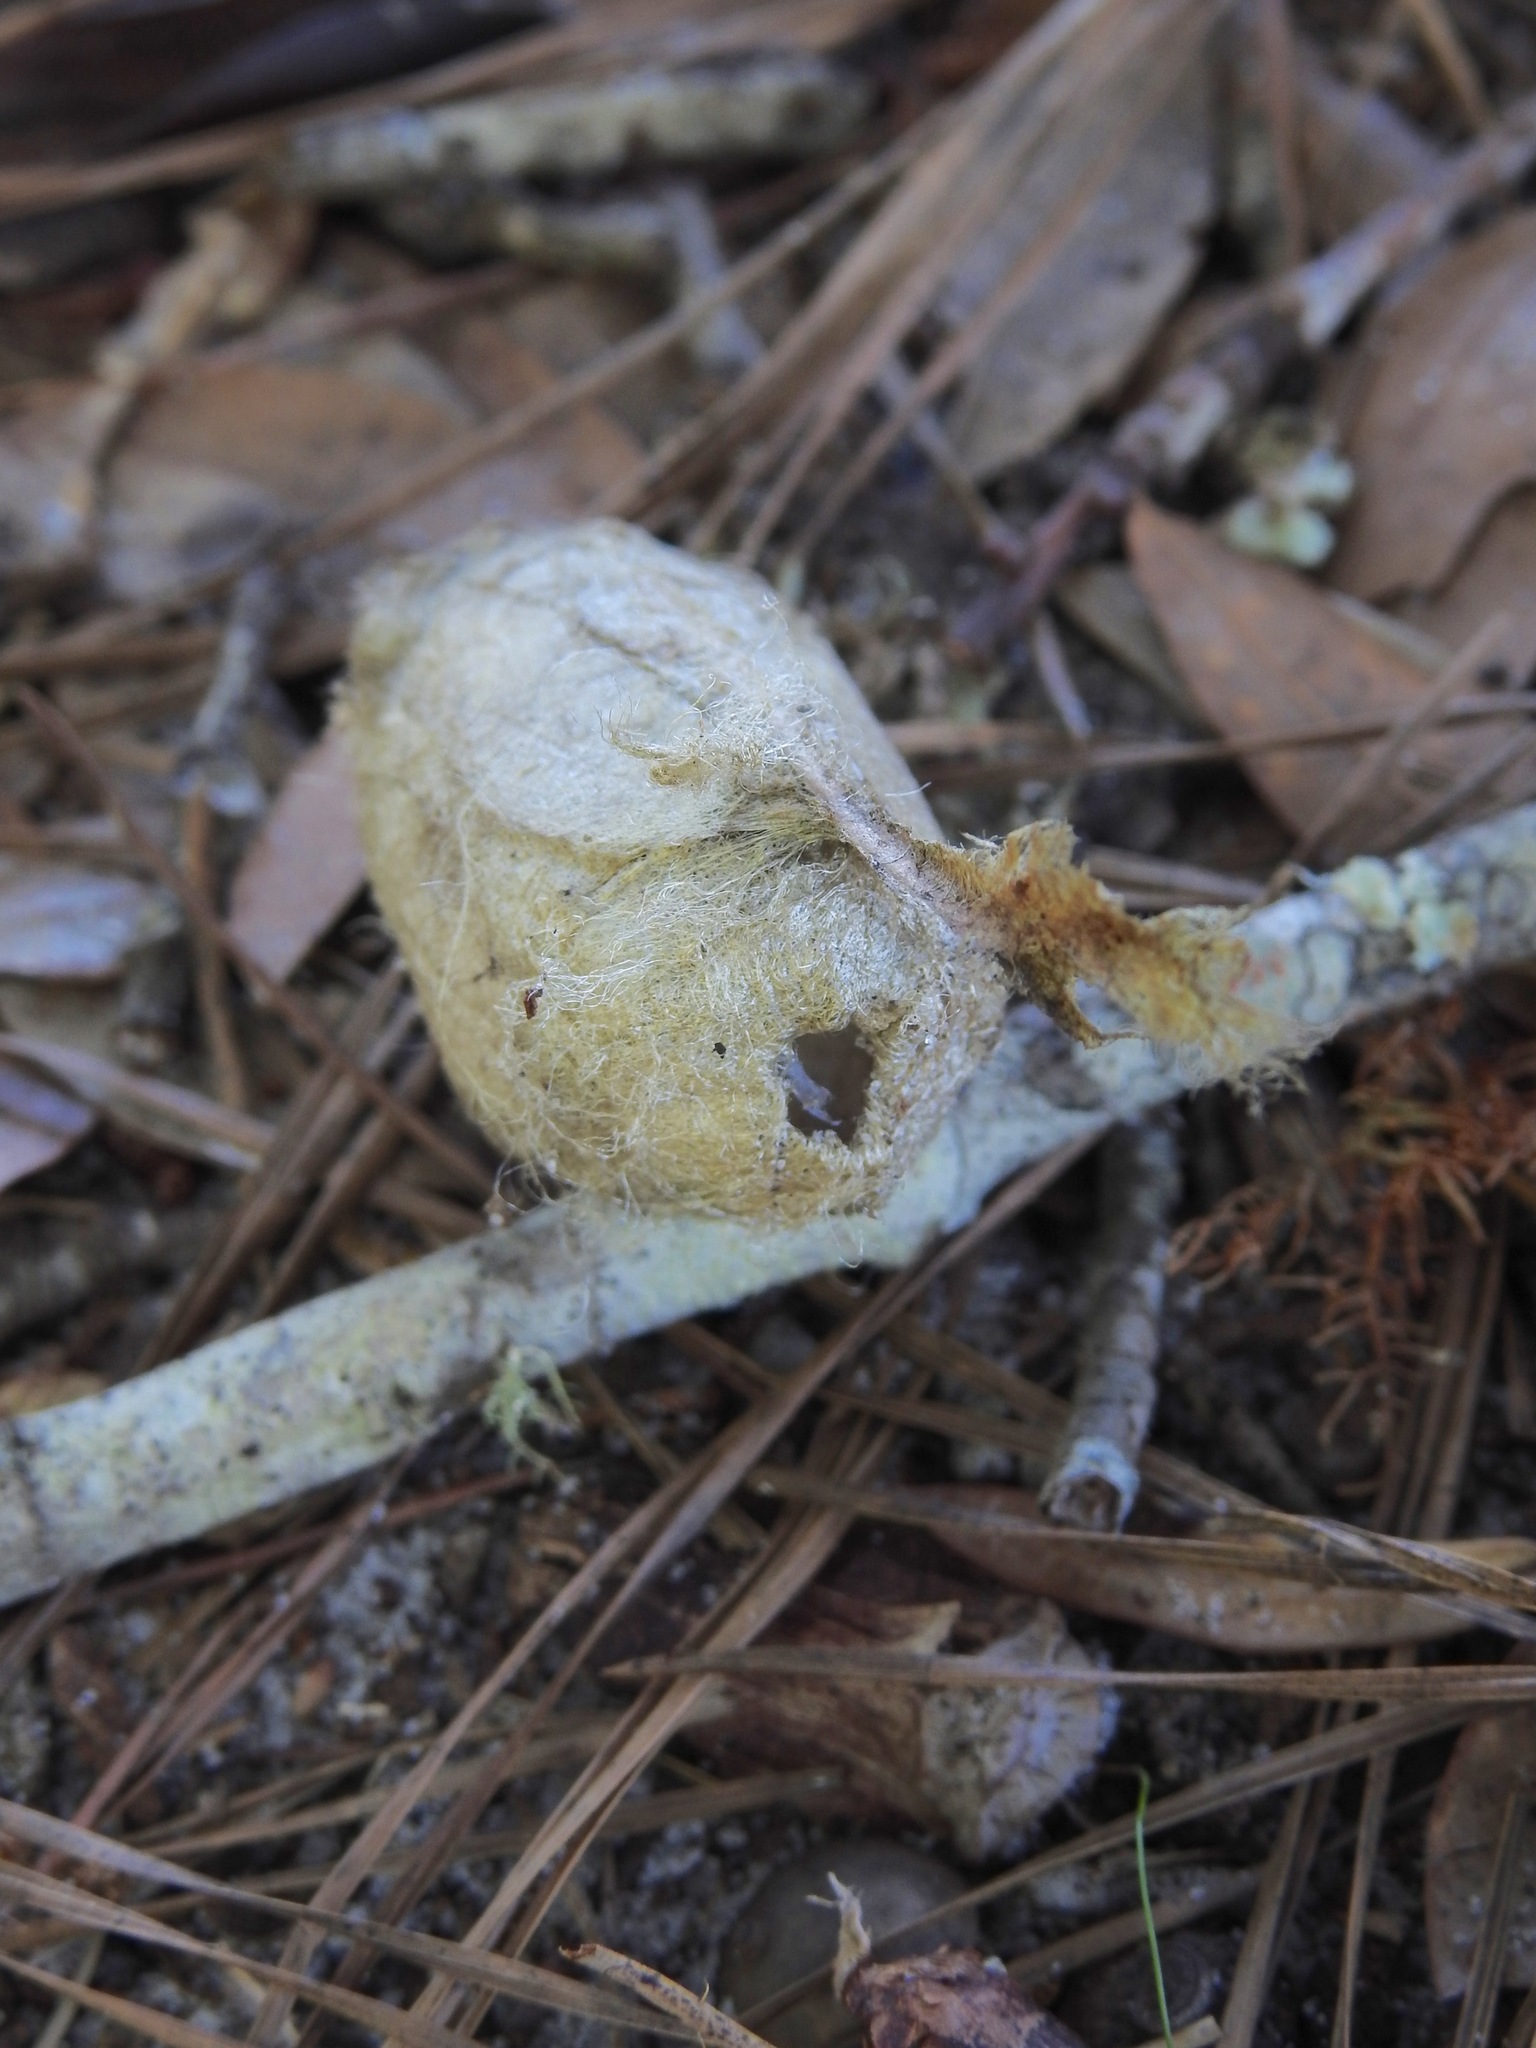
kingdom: Animalia
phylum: Arthropoda
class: Insecta
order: Lepidoptera
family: Saturniidae
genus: Antheraea
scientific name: Antheraea polyphemus
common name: Polyphemus moth
